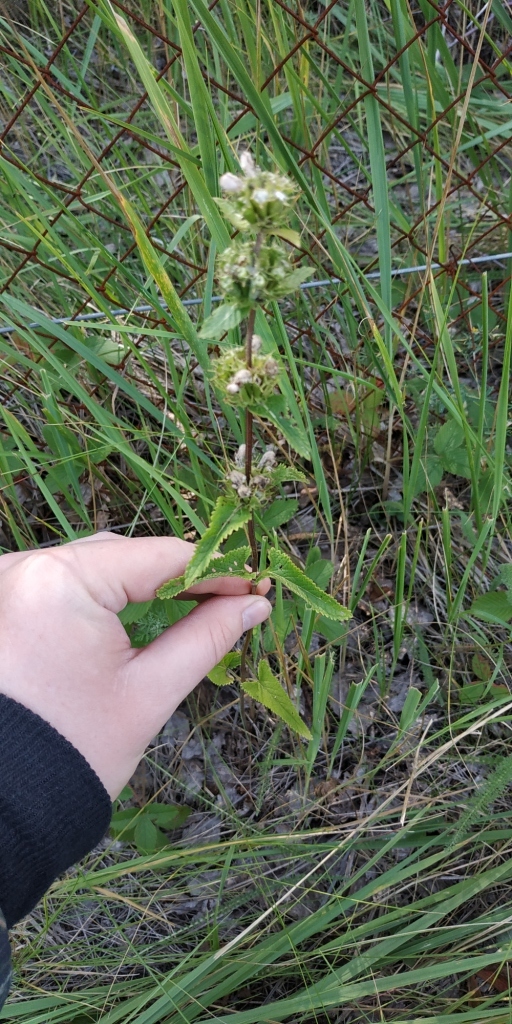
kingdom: Plantae
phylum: Tracheophyta
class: Magnoliopsida
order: Lamiales
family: Lamiaceae
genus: Phlomoides
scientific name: Phlomoides tuberosa
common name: Tuberous jerusalem sage
